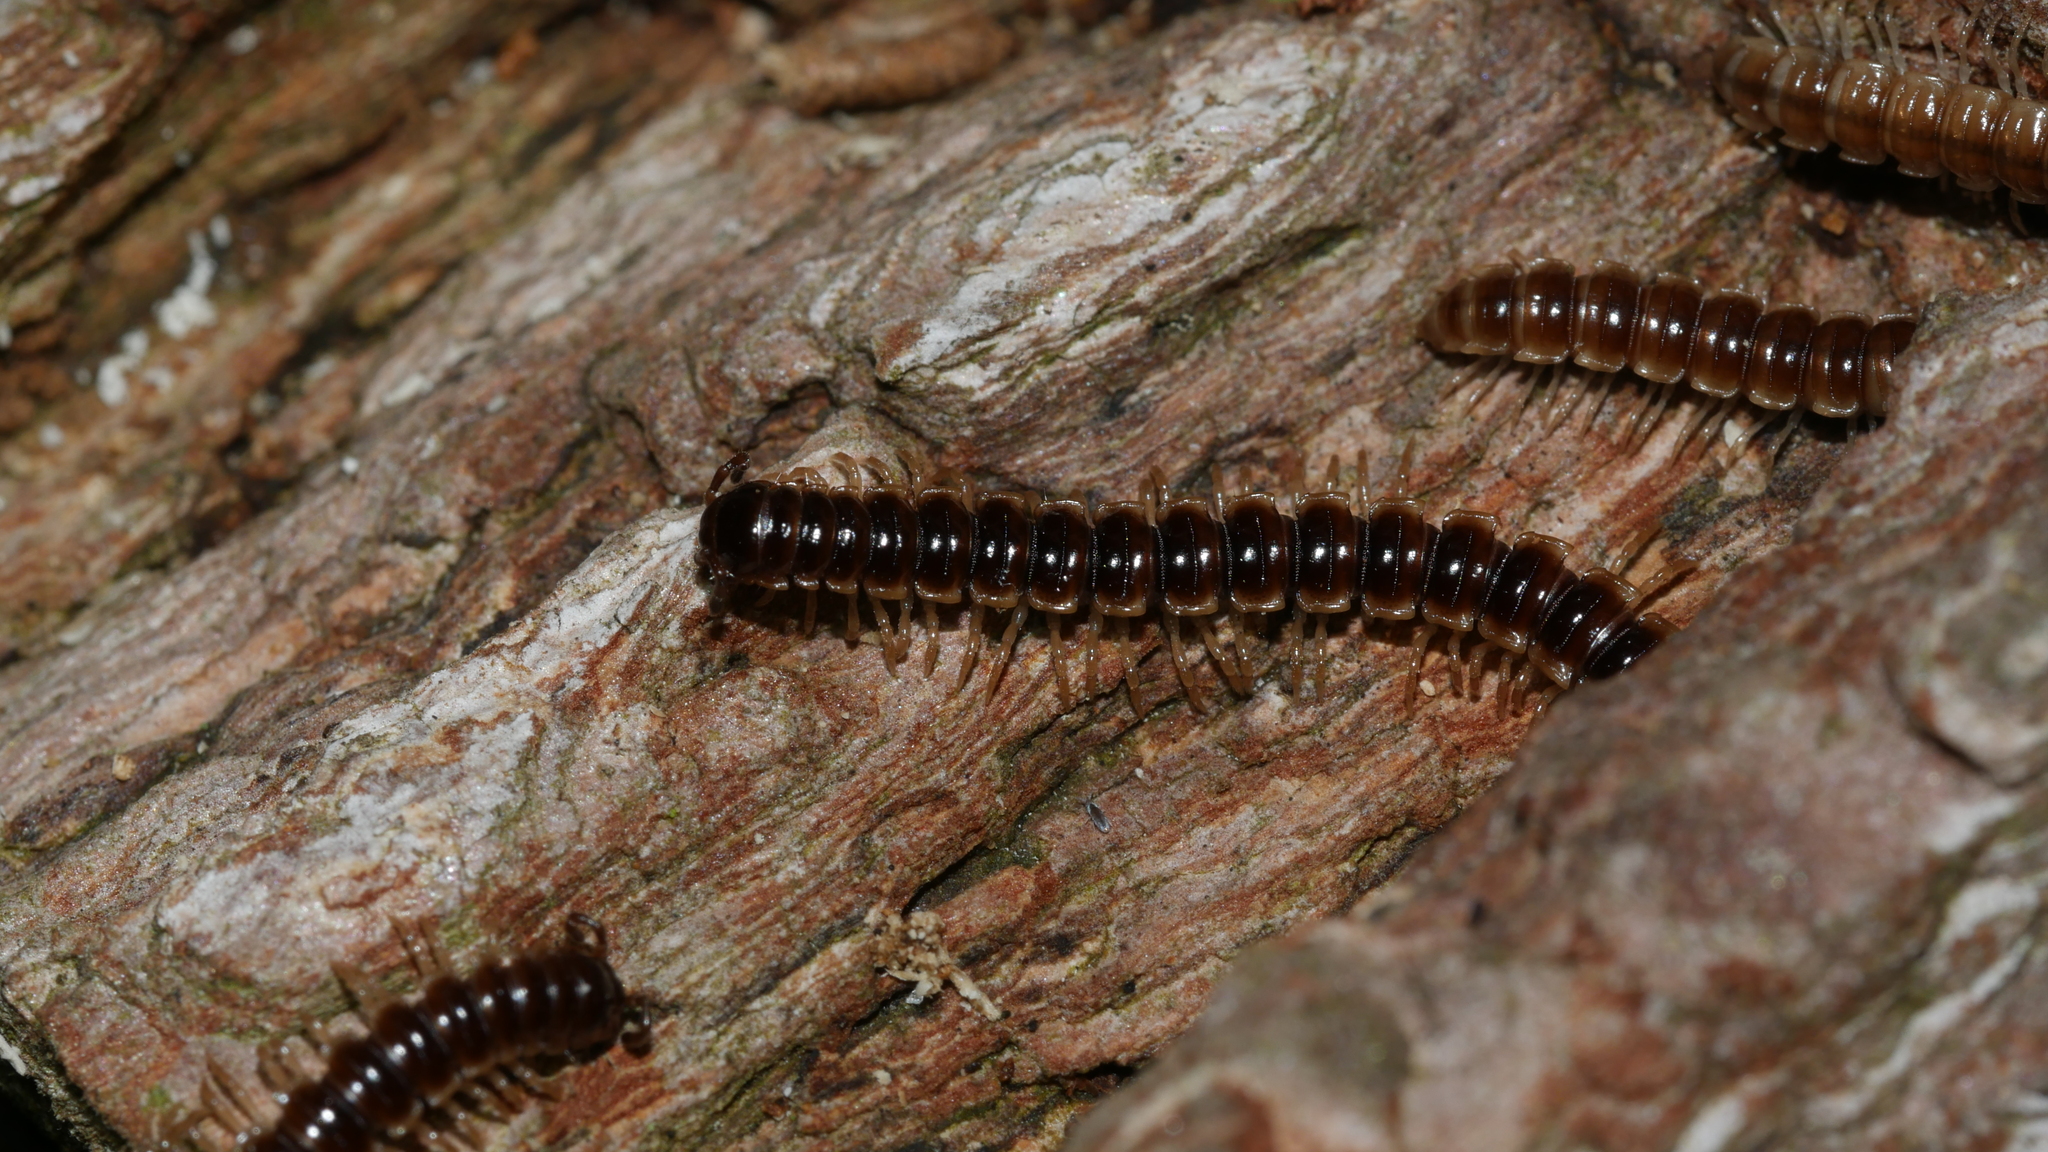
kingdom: Animalia
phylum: Arthropoda
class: Diplopoda
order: Polydesmida
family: Paradoxosomatidae
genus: Oxidus
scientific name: Oxidus gracilis
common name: Greenhouse millipede
